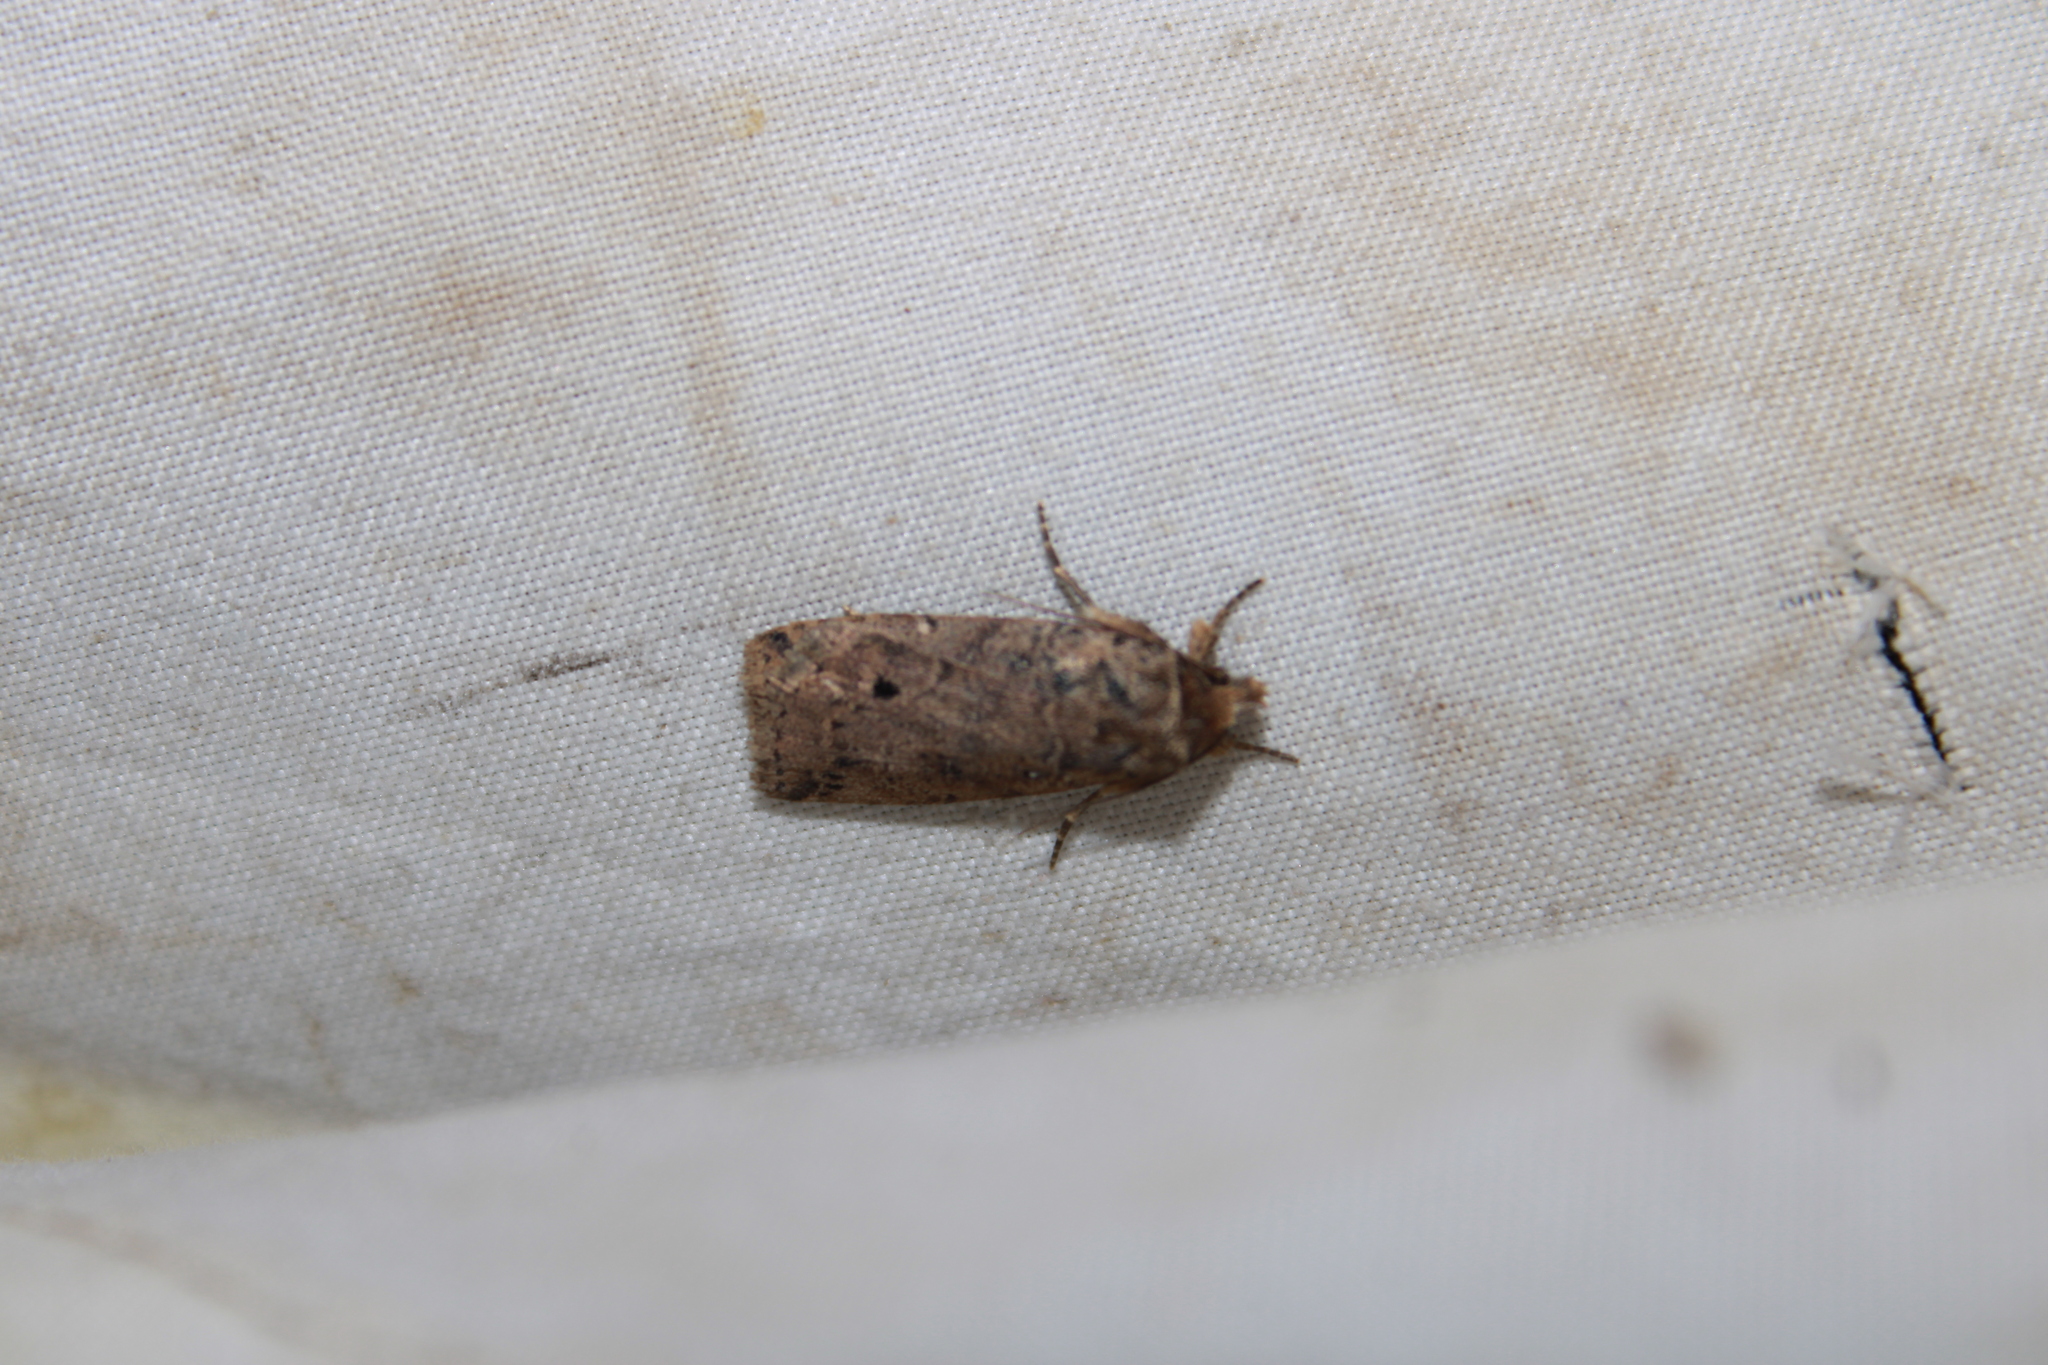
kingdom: Animalia
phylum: Arthropoda
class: Insecta
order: Lepidoptera
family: Noctuidae
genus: Janseodes
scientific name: Janseodes melanospila
